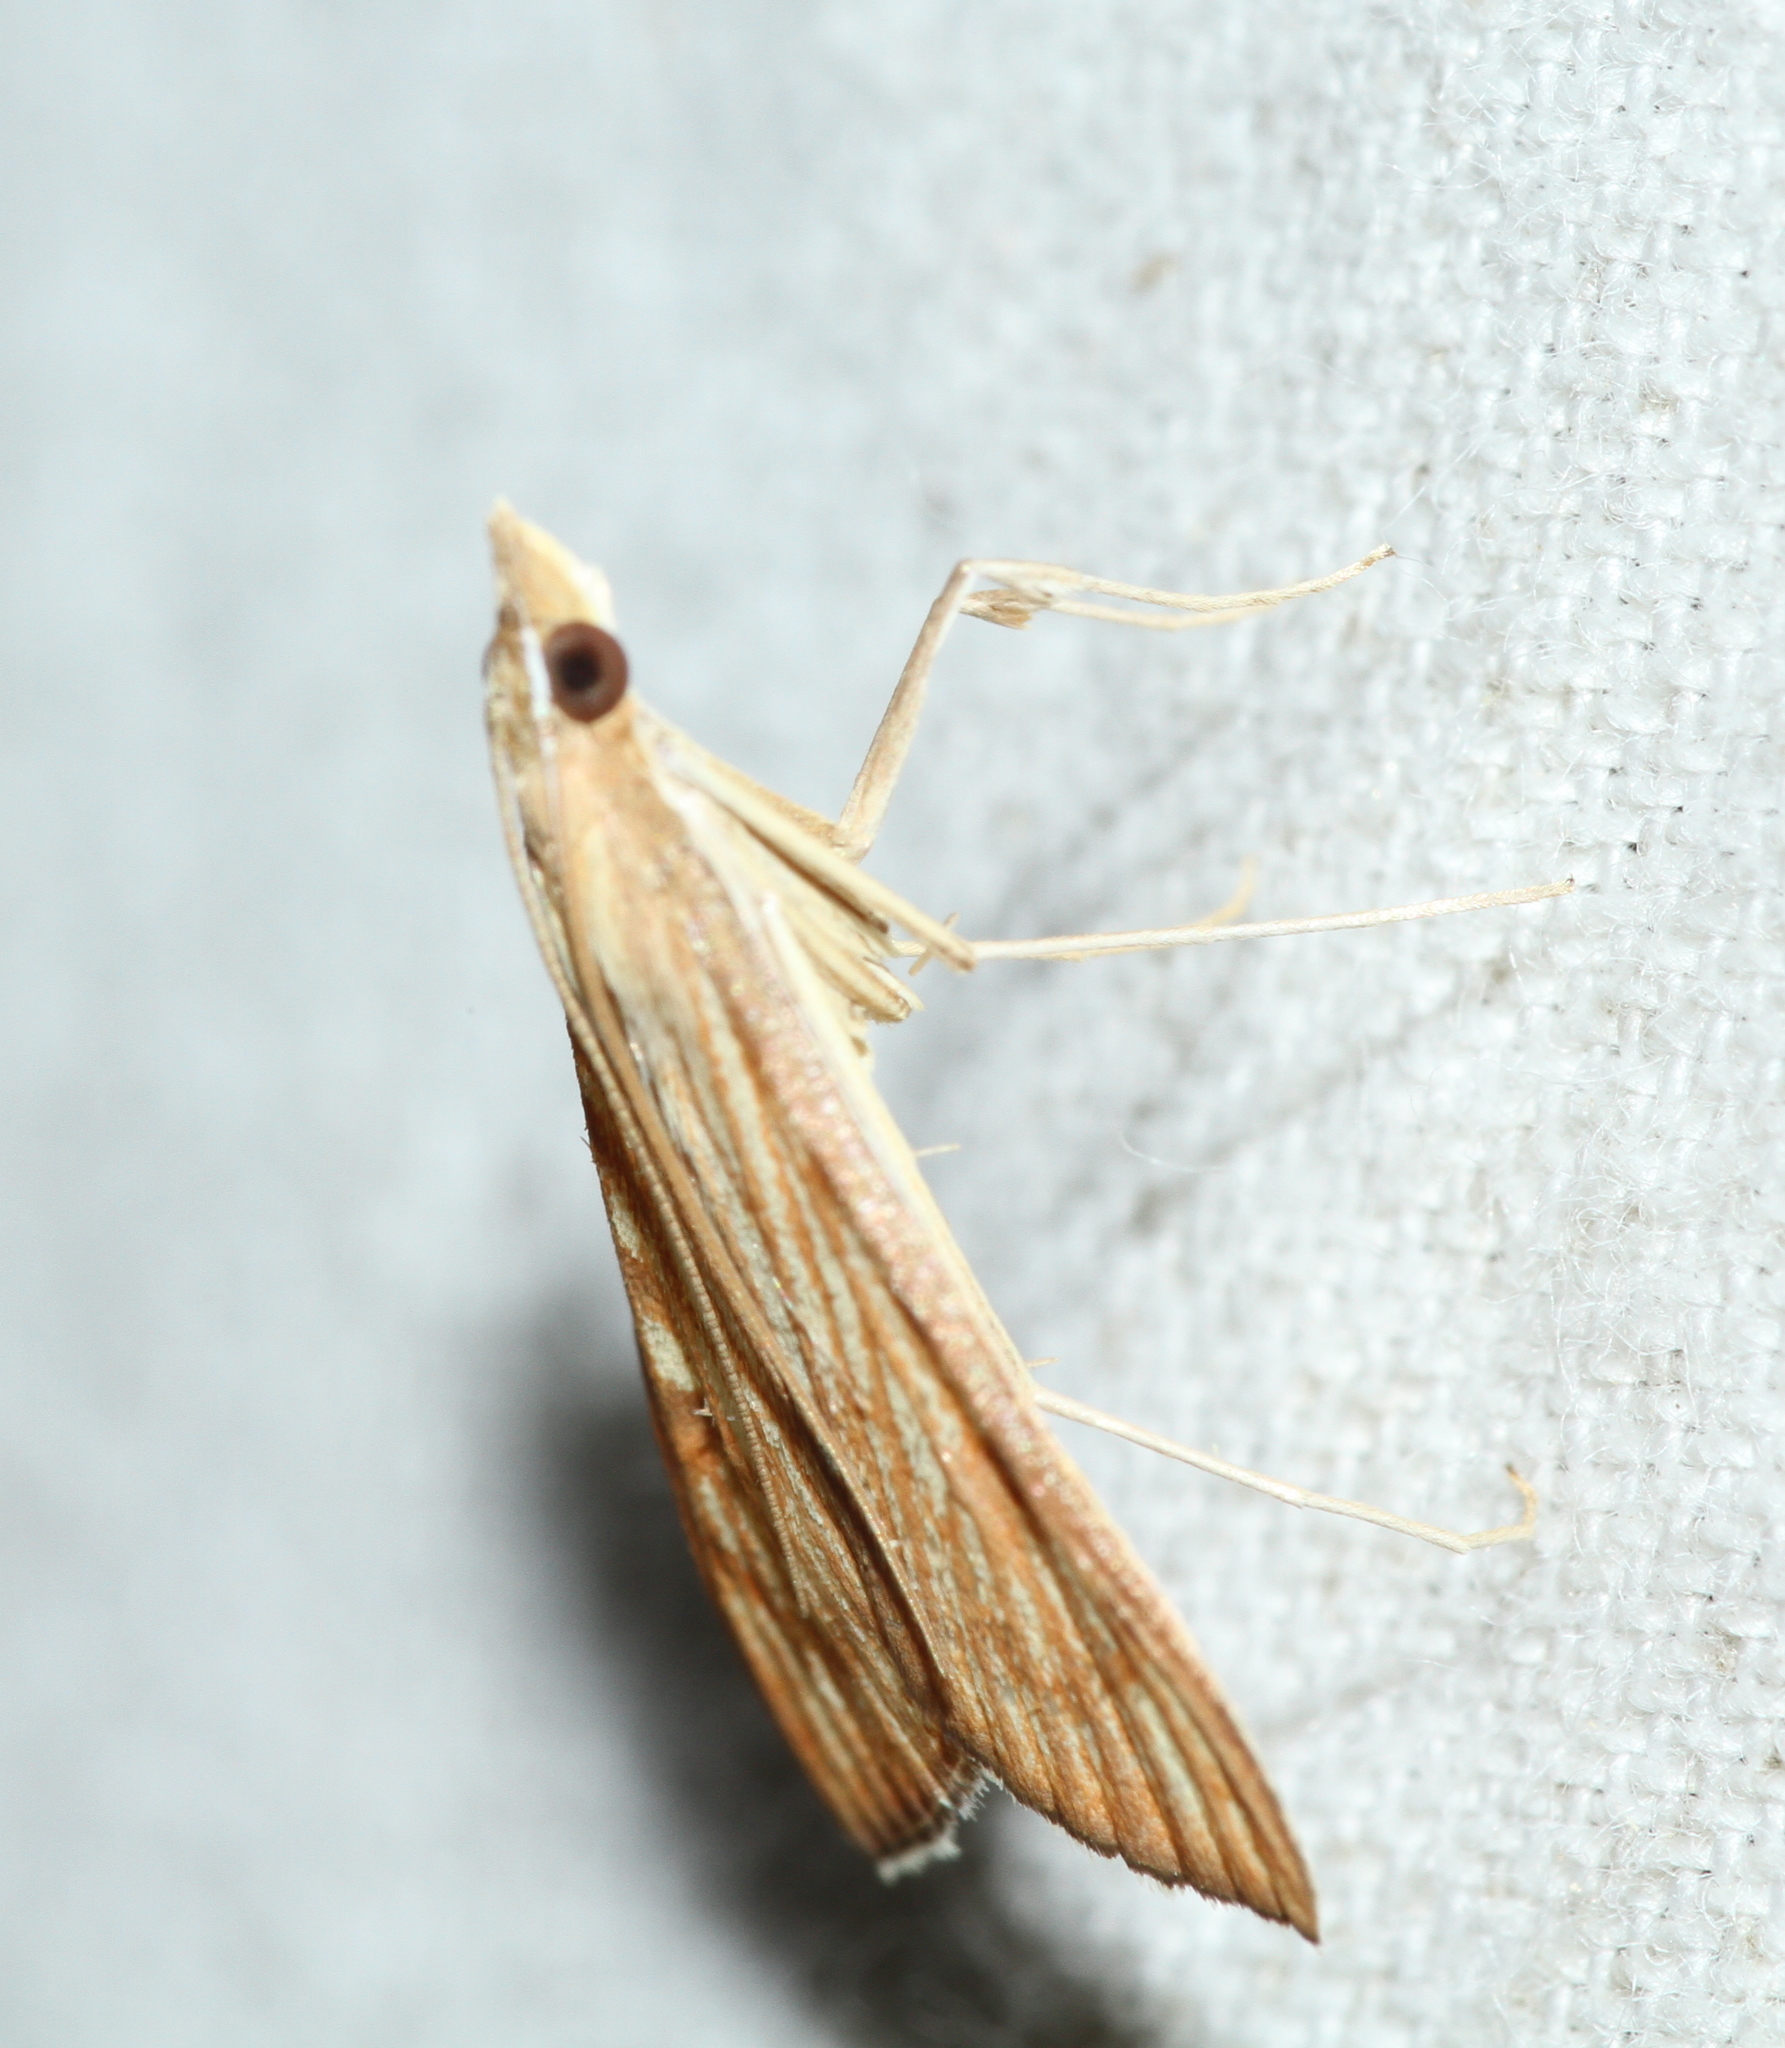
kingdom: Animalia
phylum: Arthropoda
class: Insecta
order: Lepidoptera
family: Crambidae
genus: Antigastra
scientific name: Antigastra catalaunalis
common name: Spanish dot
